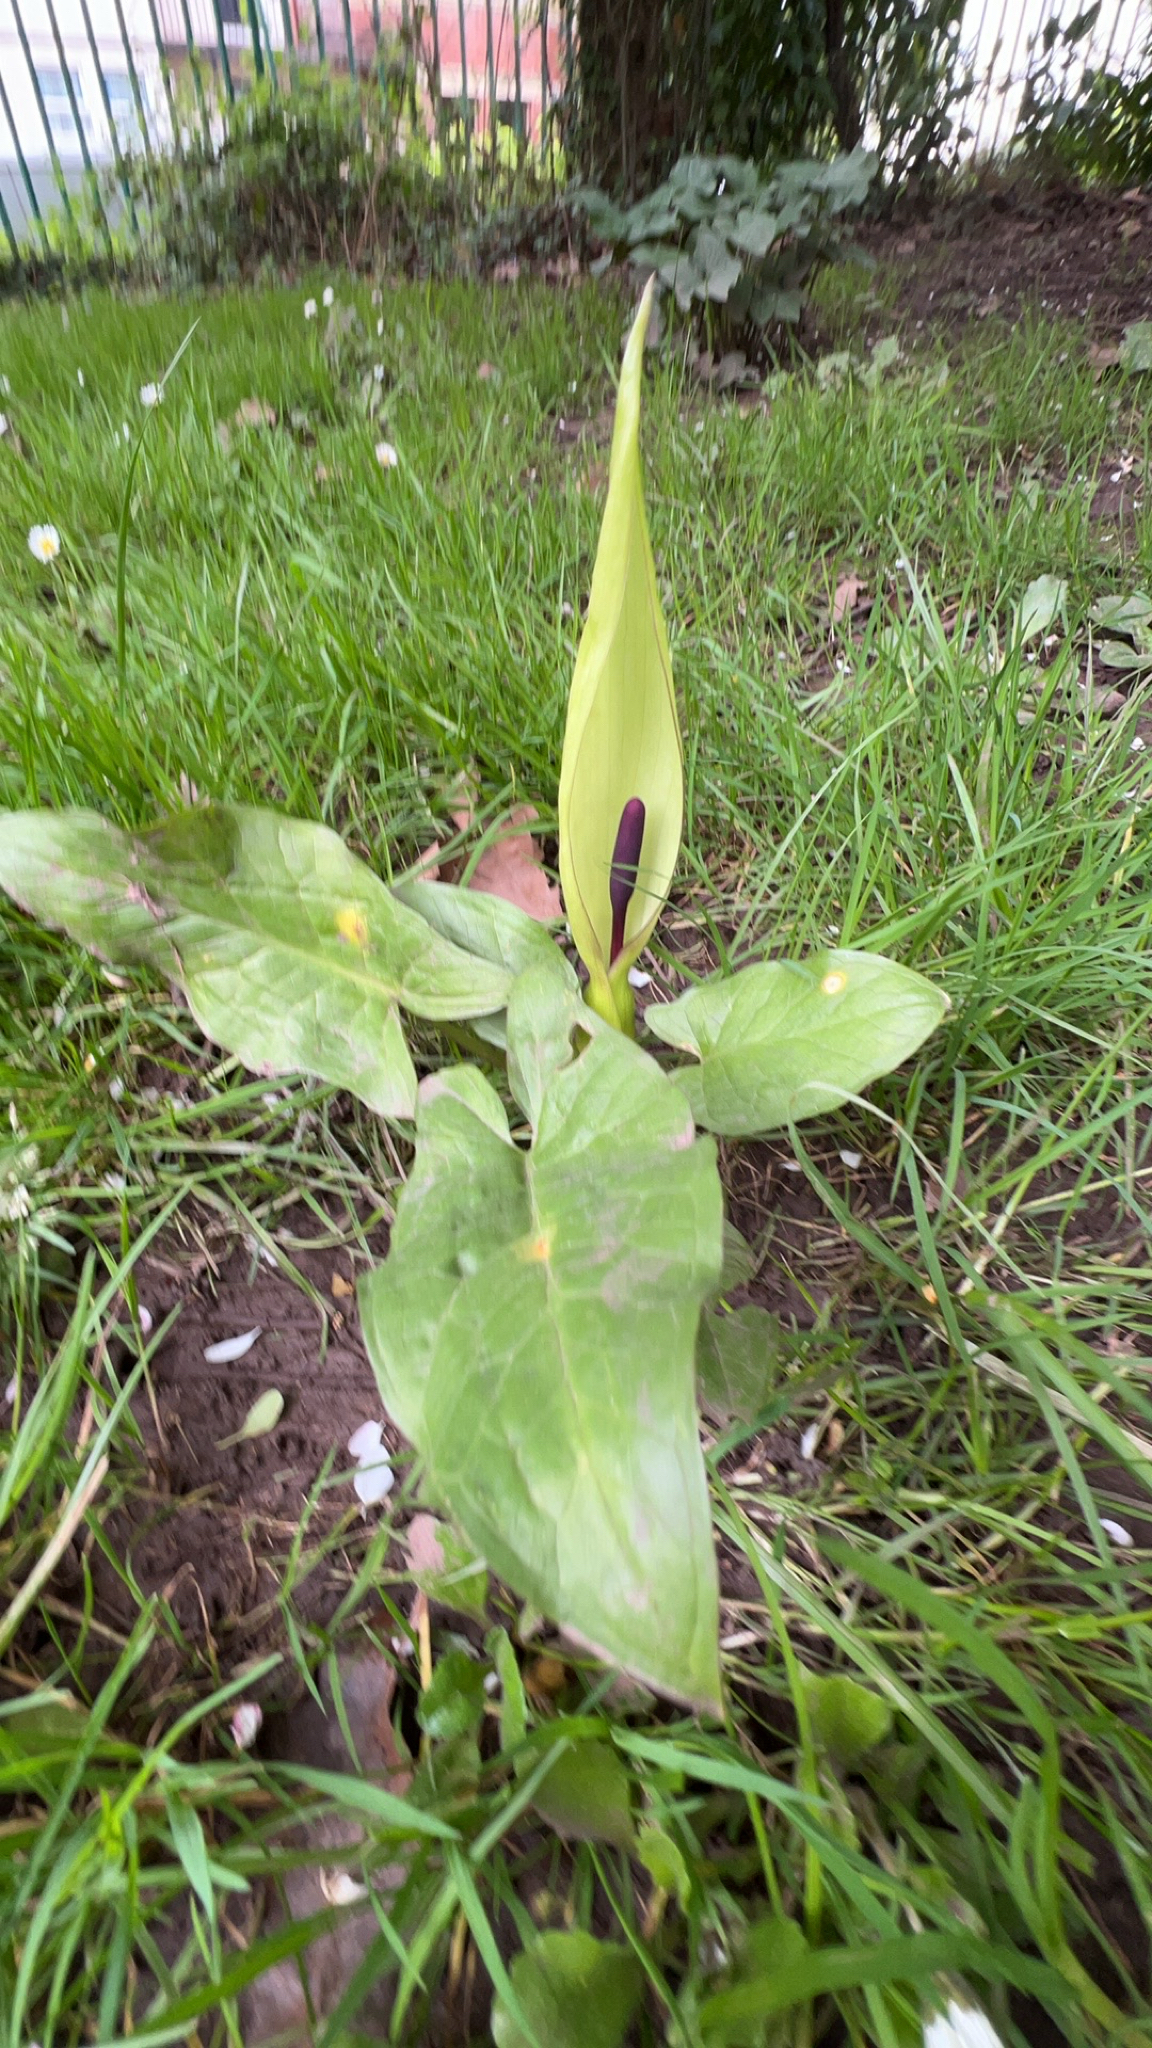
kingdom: Plantae
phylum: Tracheophyta
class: Liliopsida
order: Alismatales
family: Araceae
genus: Arum
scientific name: Arum maculatum
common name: Lords-and-ladies
